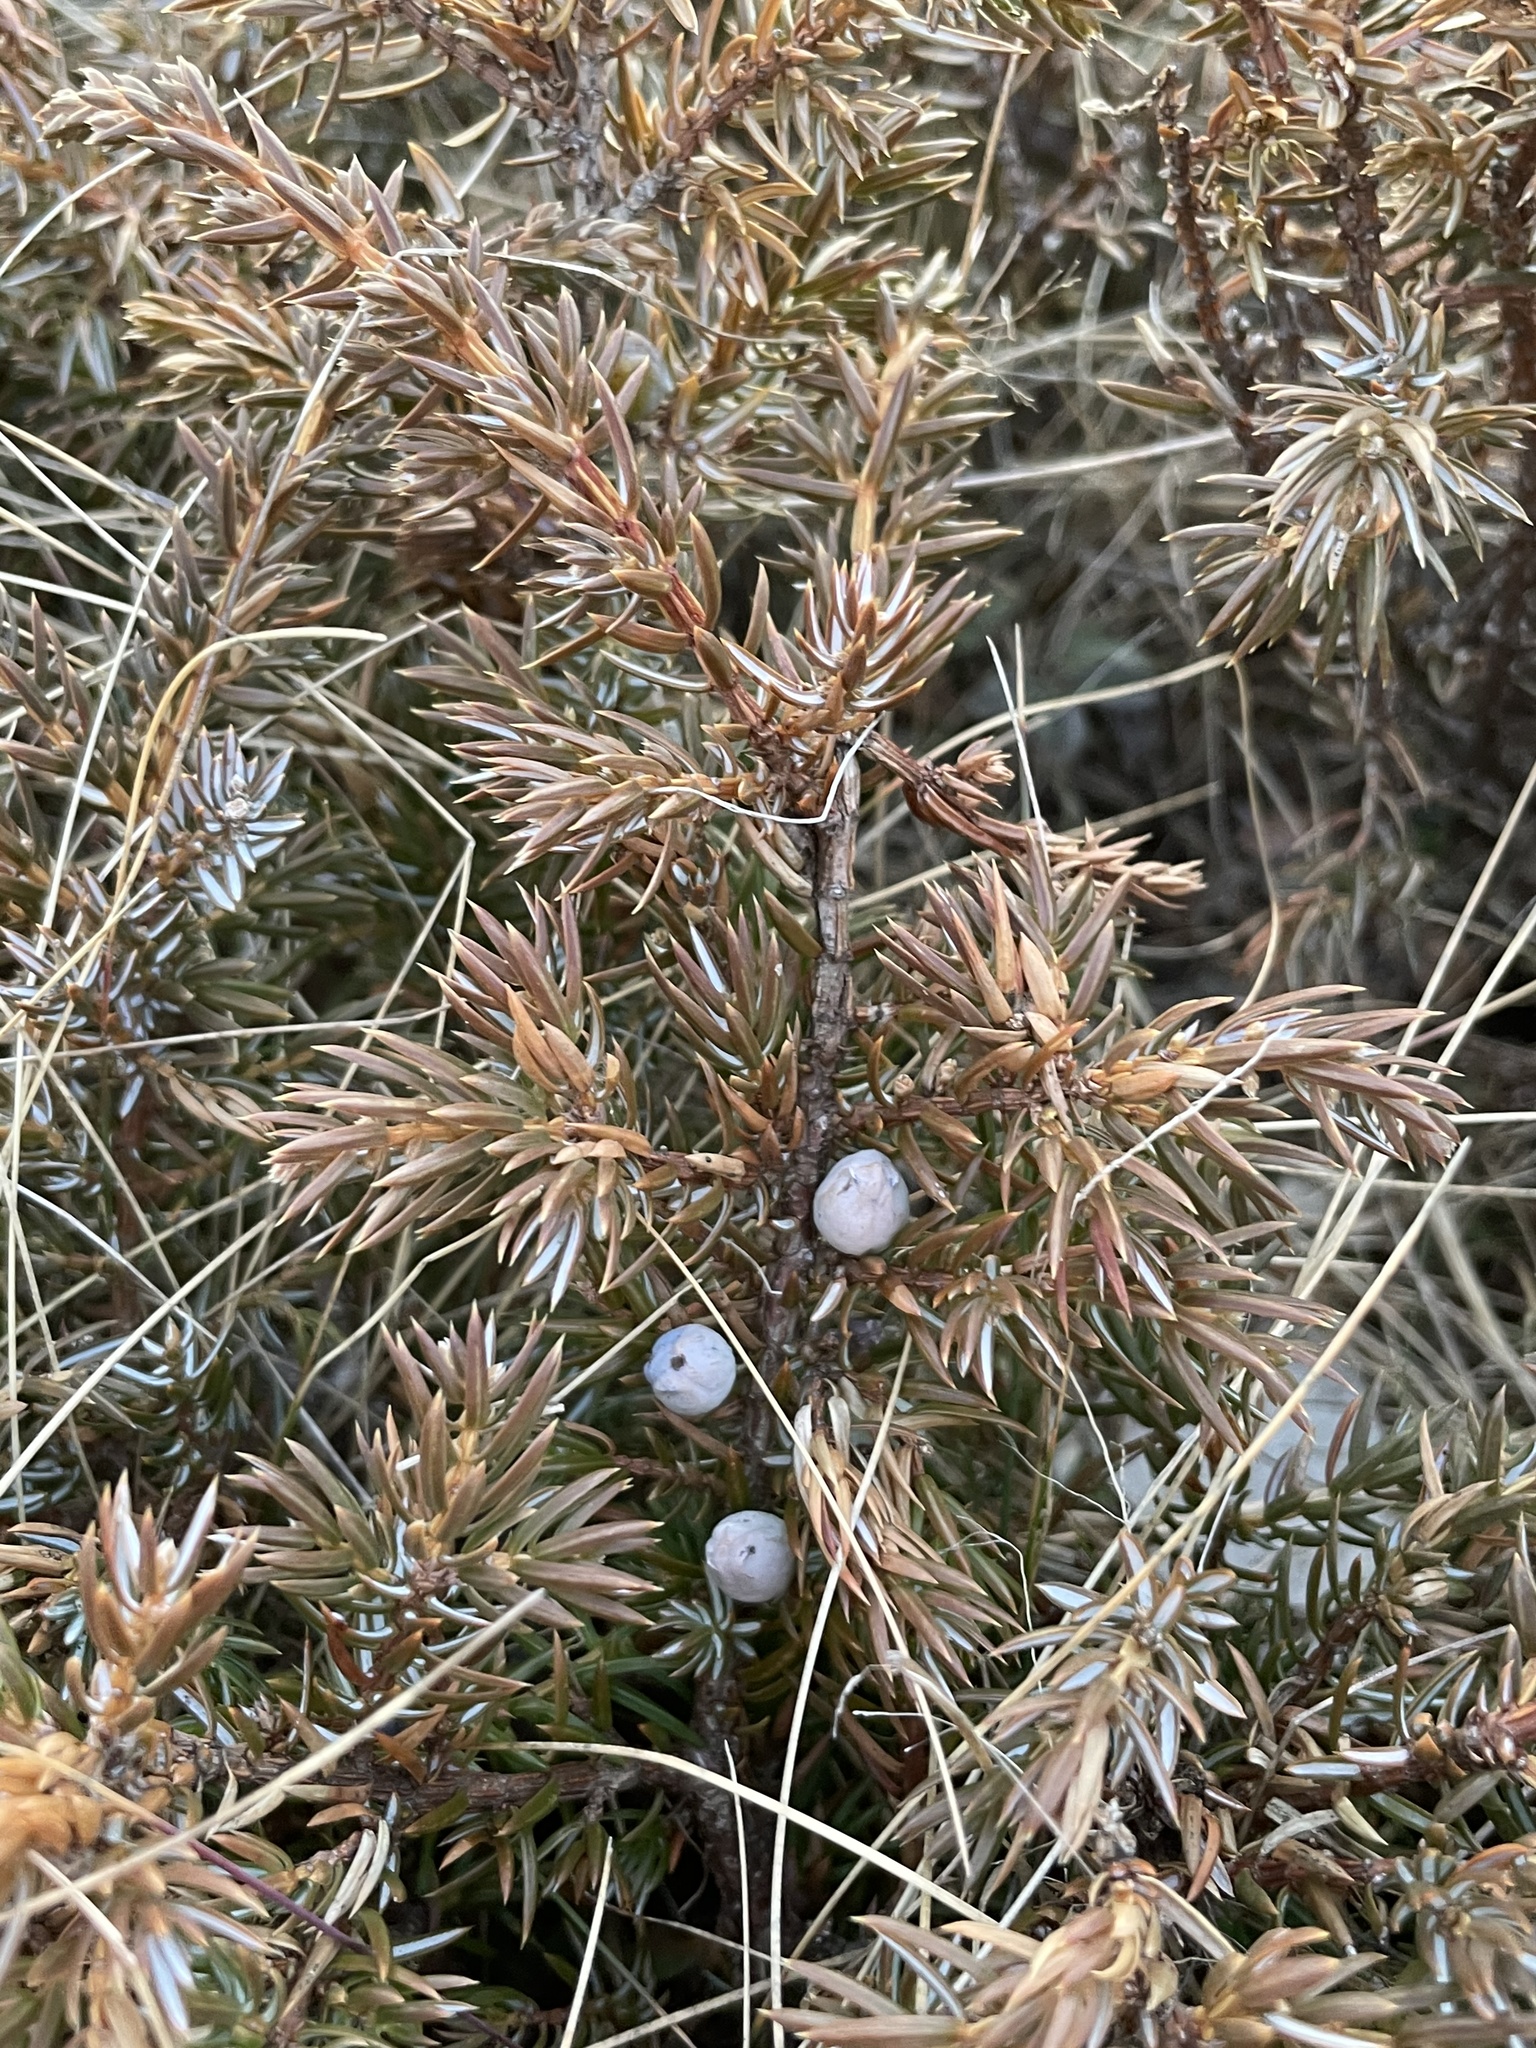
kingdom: Plantae
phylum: Tracheophyta
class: Pinopsida
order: Pinales
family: Cupressaceae
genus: Juniperus
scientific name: Juniperus communis
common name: Common juniper
